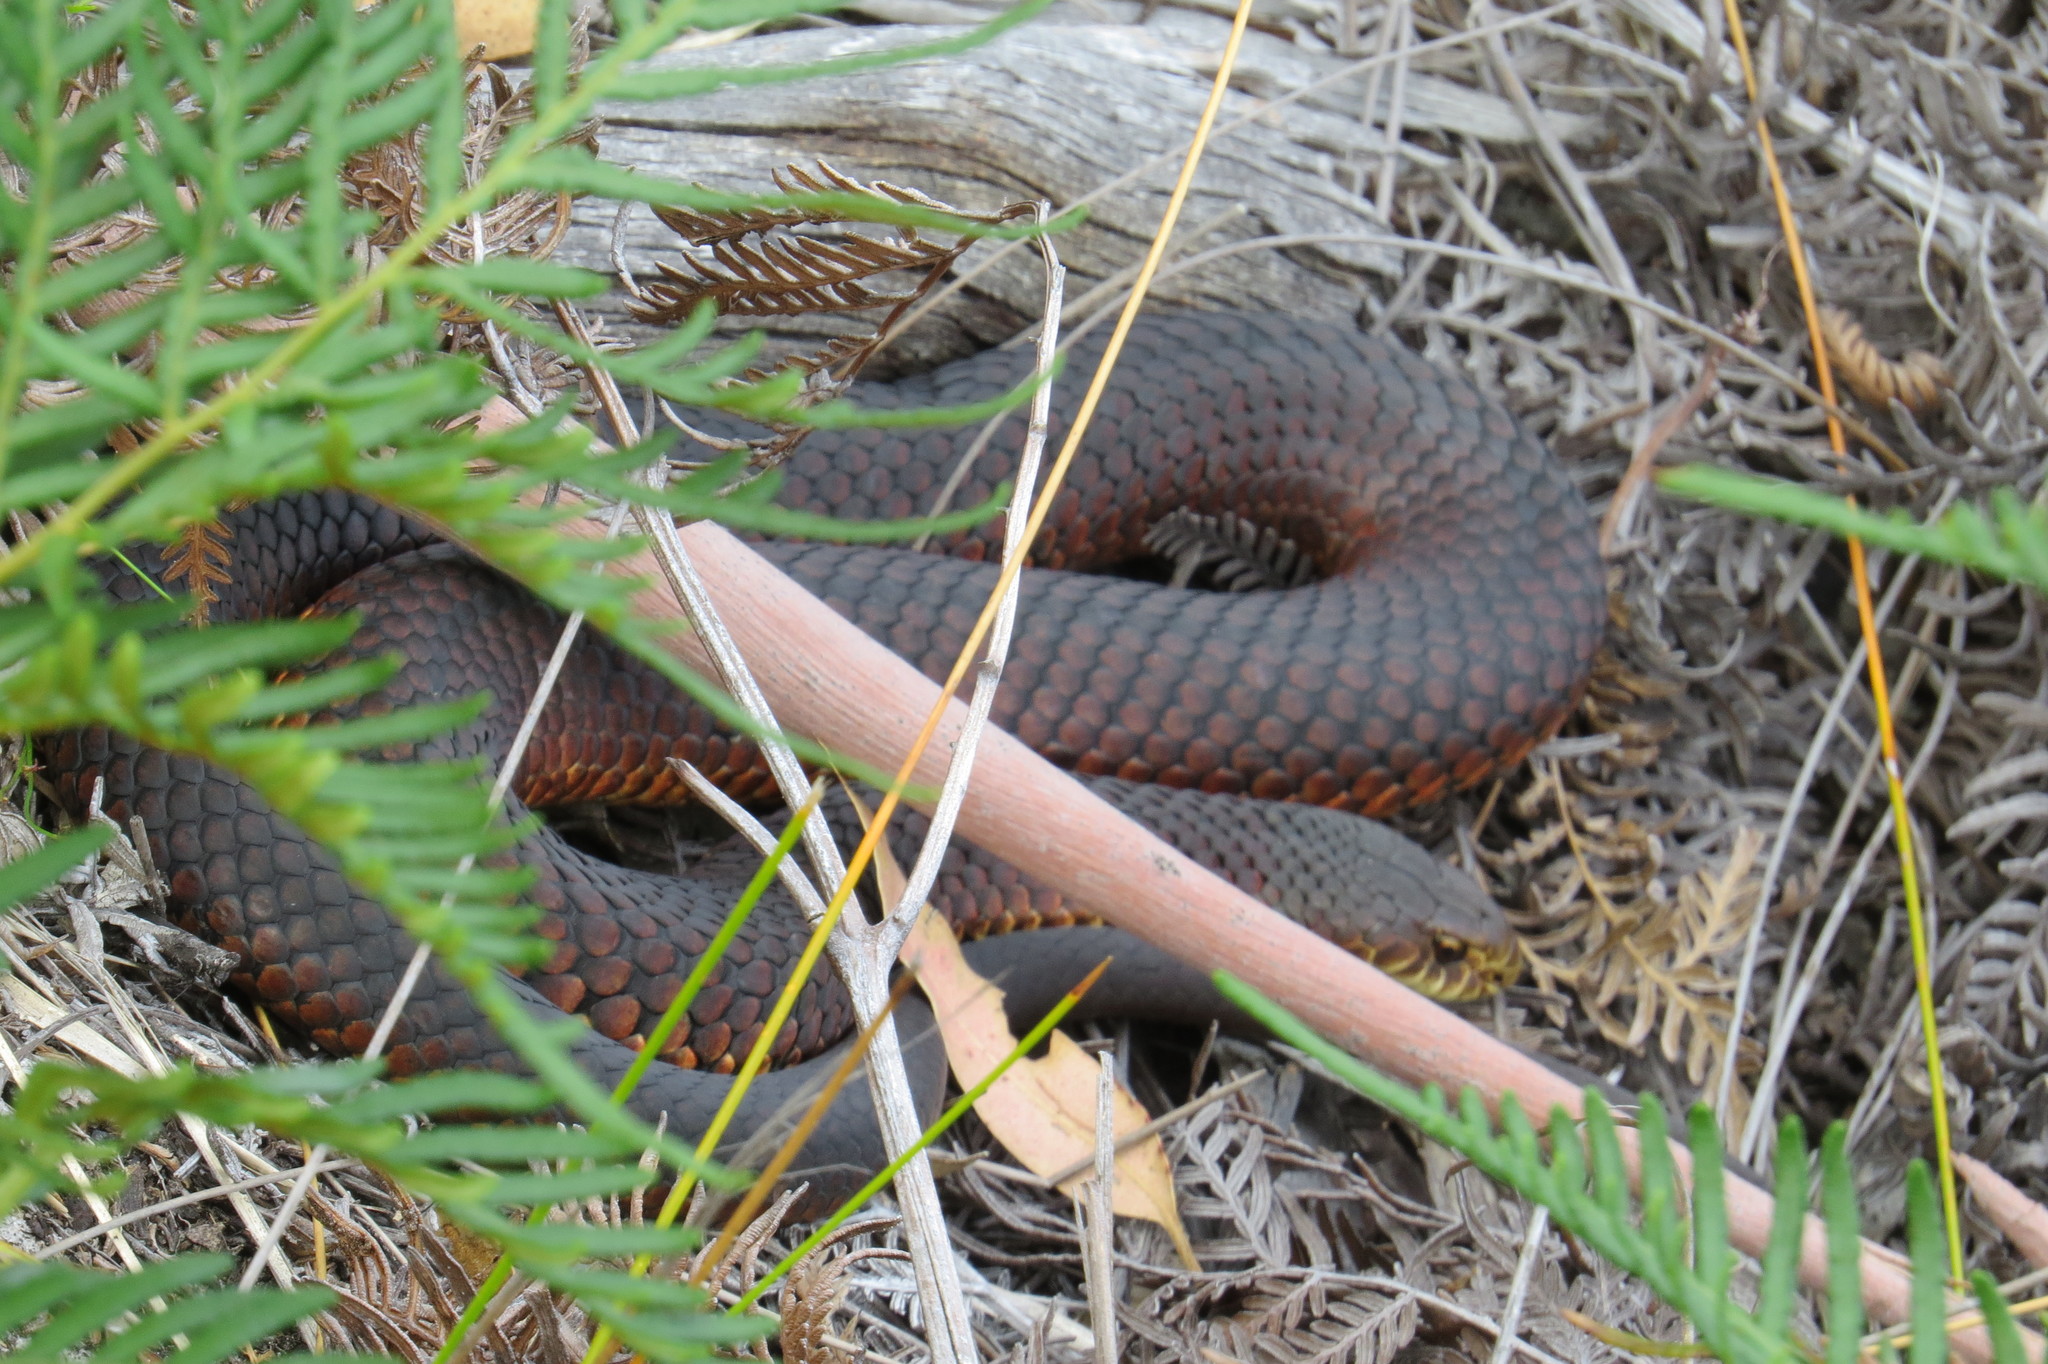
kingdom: Animalia
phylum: Chordata
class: Squamata
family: Elapidae
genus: Austrelaps
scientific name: Austrelaps superbus
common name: Copperhead snake
